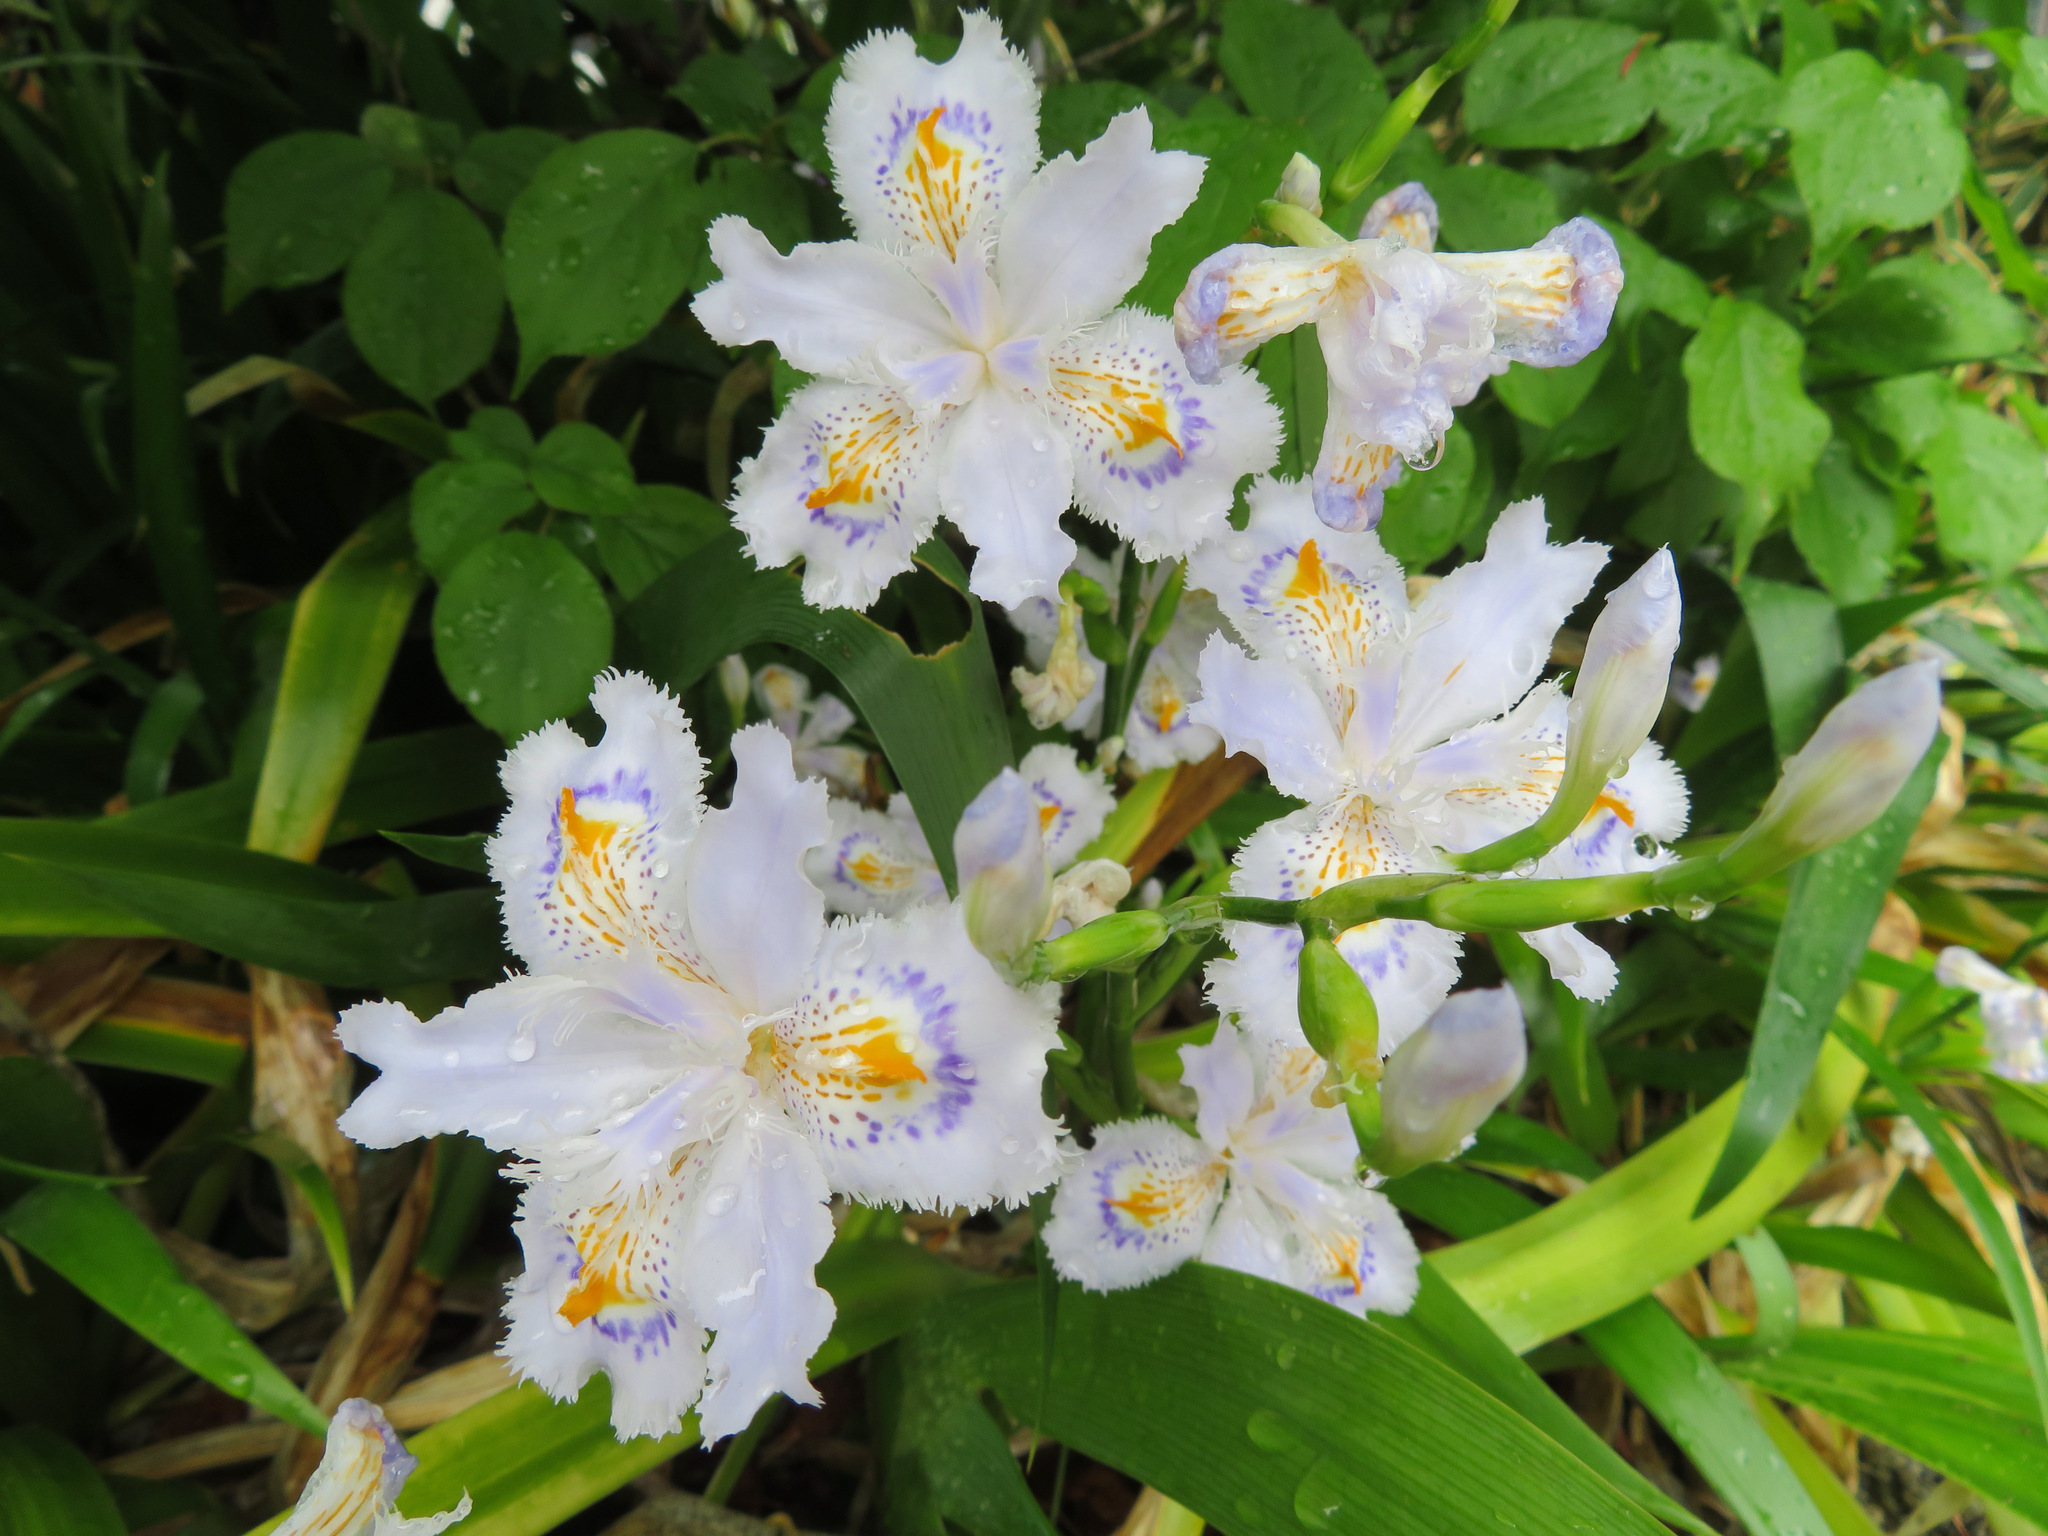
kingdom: Plantae
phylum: Tracheophyta
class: Liliopsida
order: Asparagales
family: Iridaceae
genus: Iris
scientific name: Iris japonica
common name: Butterfly-flower
